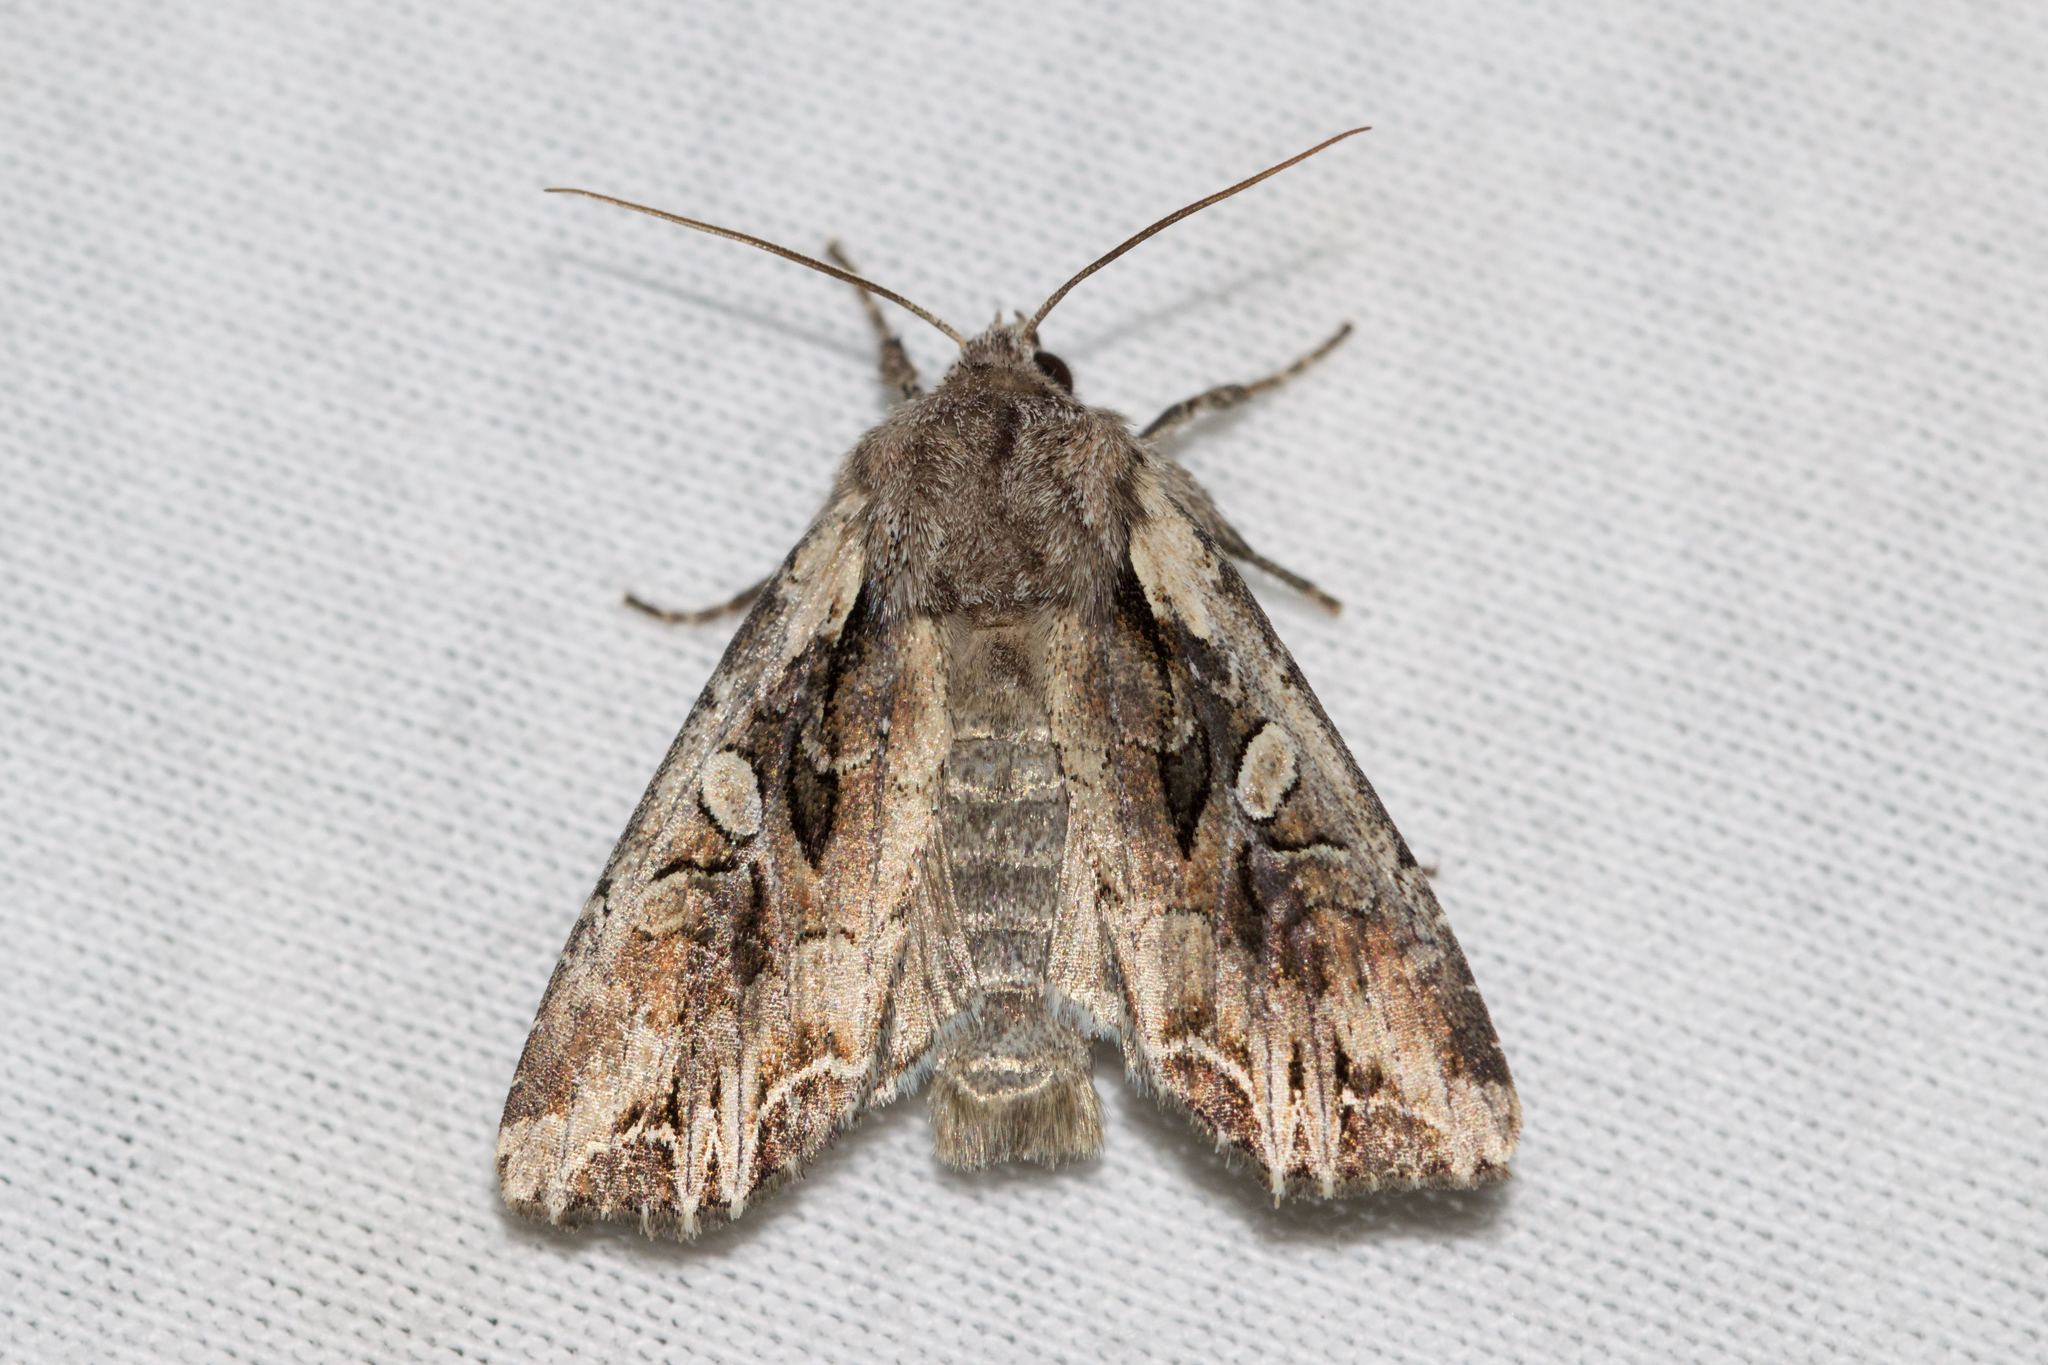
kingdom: Animalia
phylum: Arthropoda
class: Insecta
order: Lepidoptera
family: Noctuidae
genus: Lacanobia
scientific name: Lacanobia atlantica
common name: Atlantic arches moth
